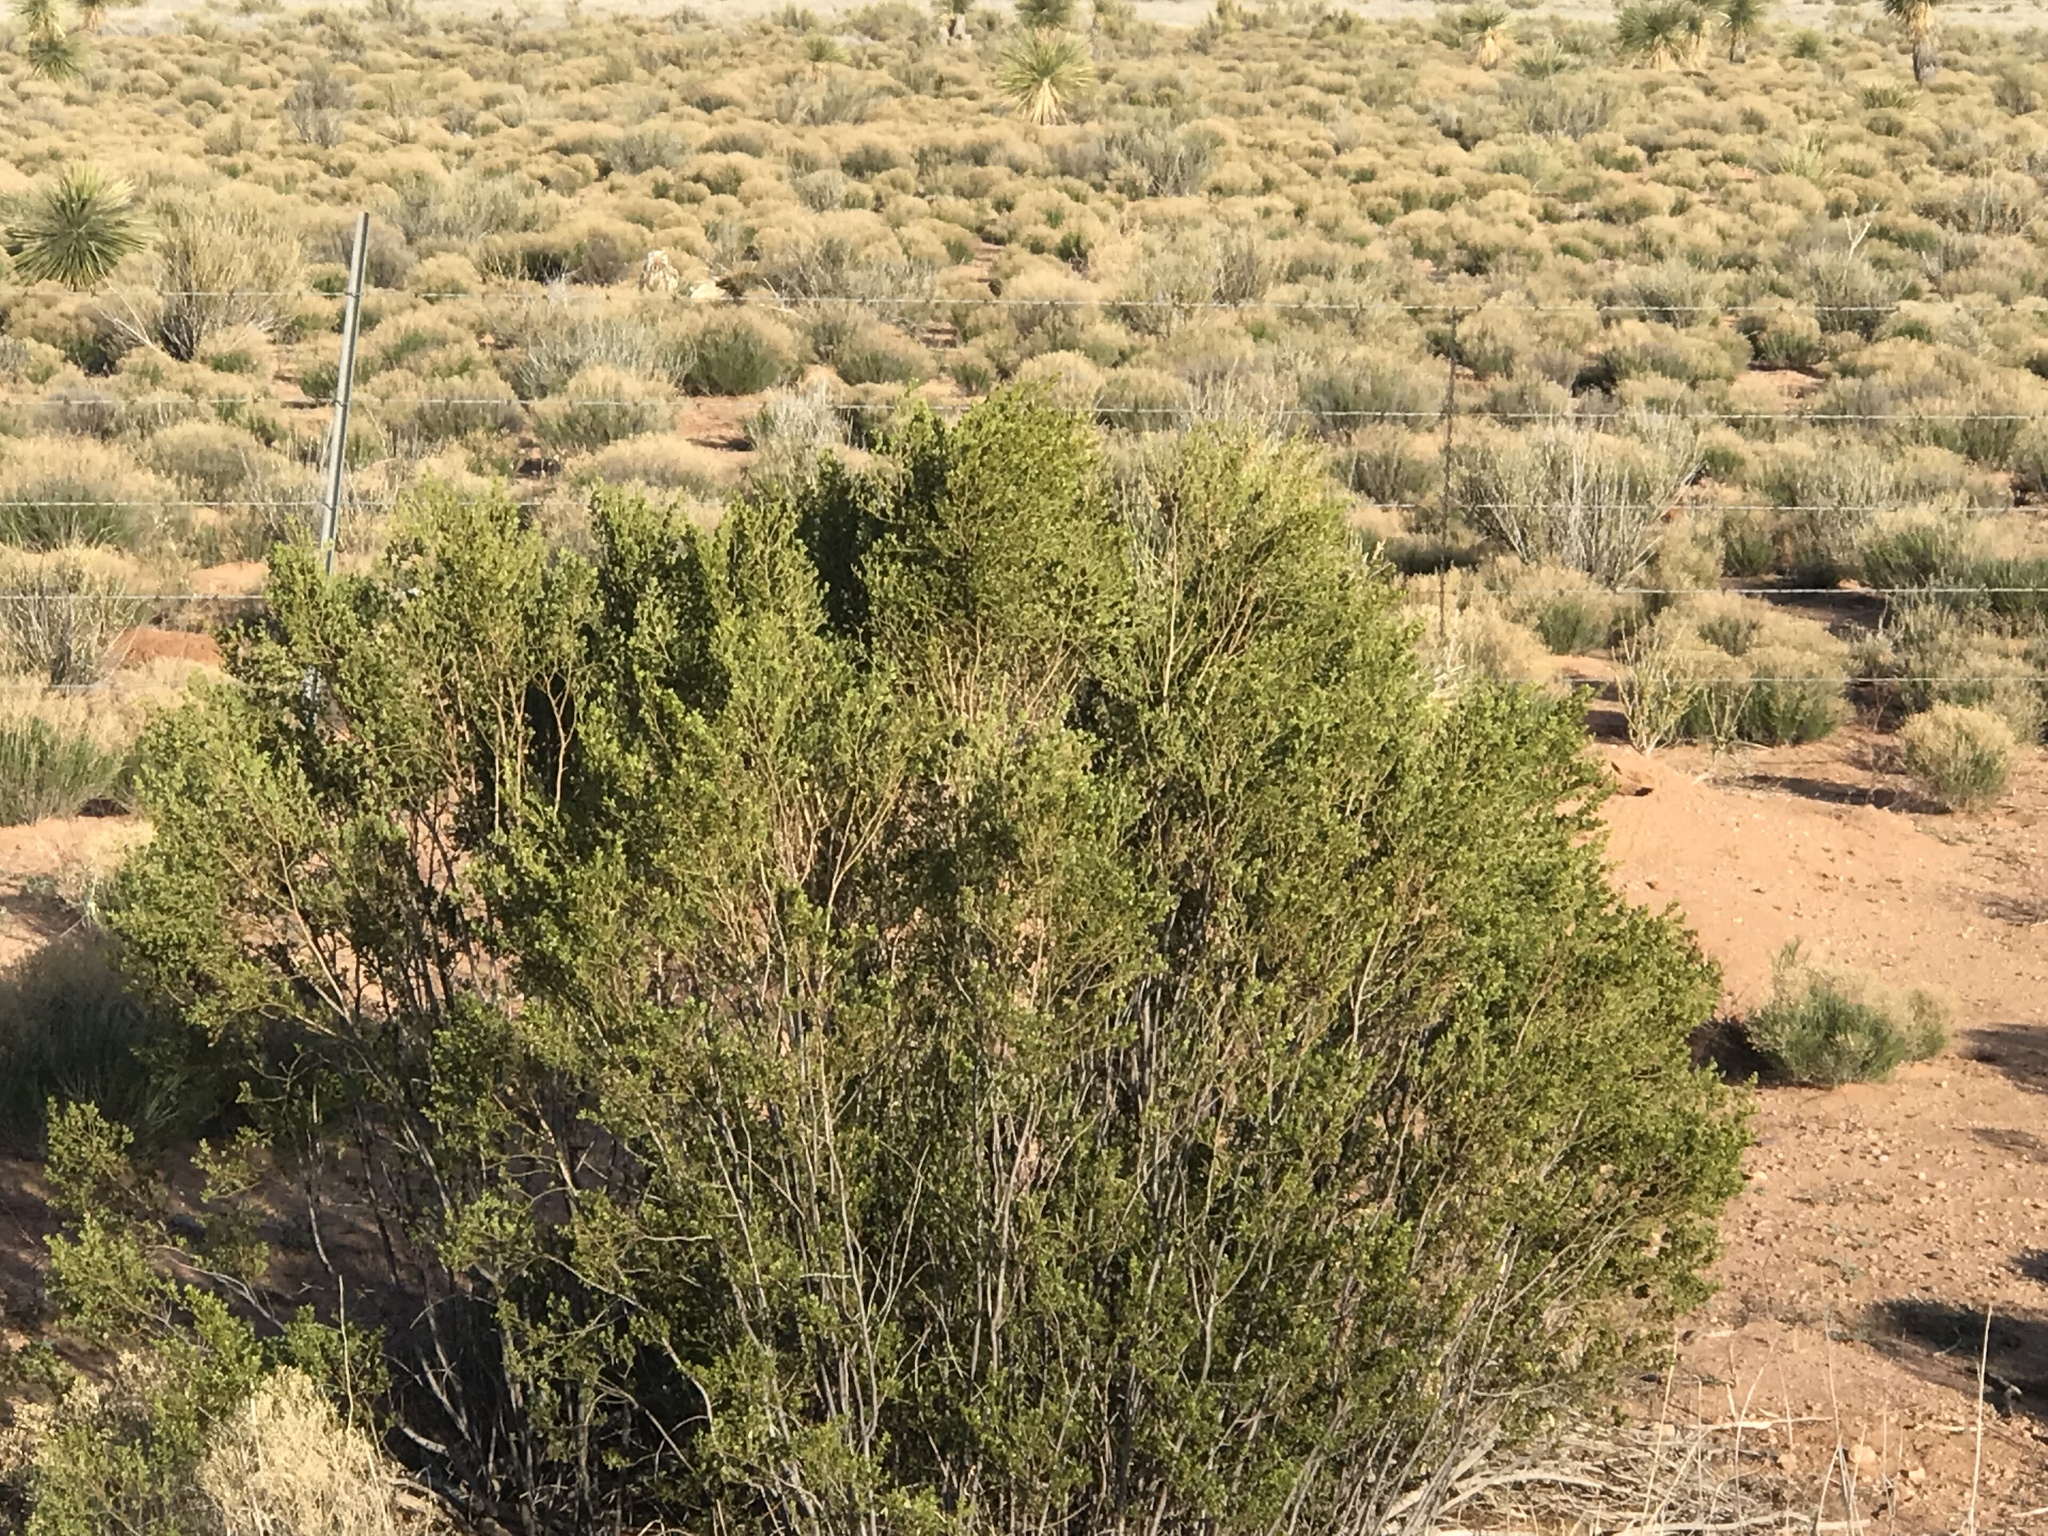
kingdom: Plantae
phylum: Tracheophyta
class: Magnoliopsida
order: Zygophyllales
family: Zygophyllaceae
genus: Larrea
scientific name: Larrea tridentata
